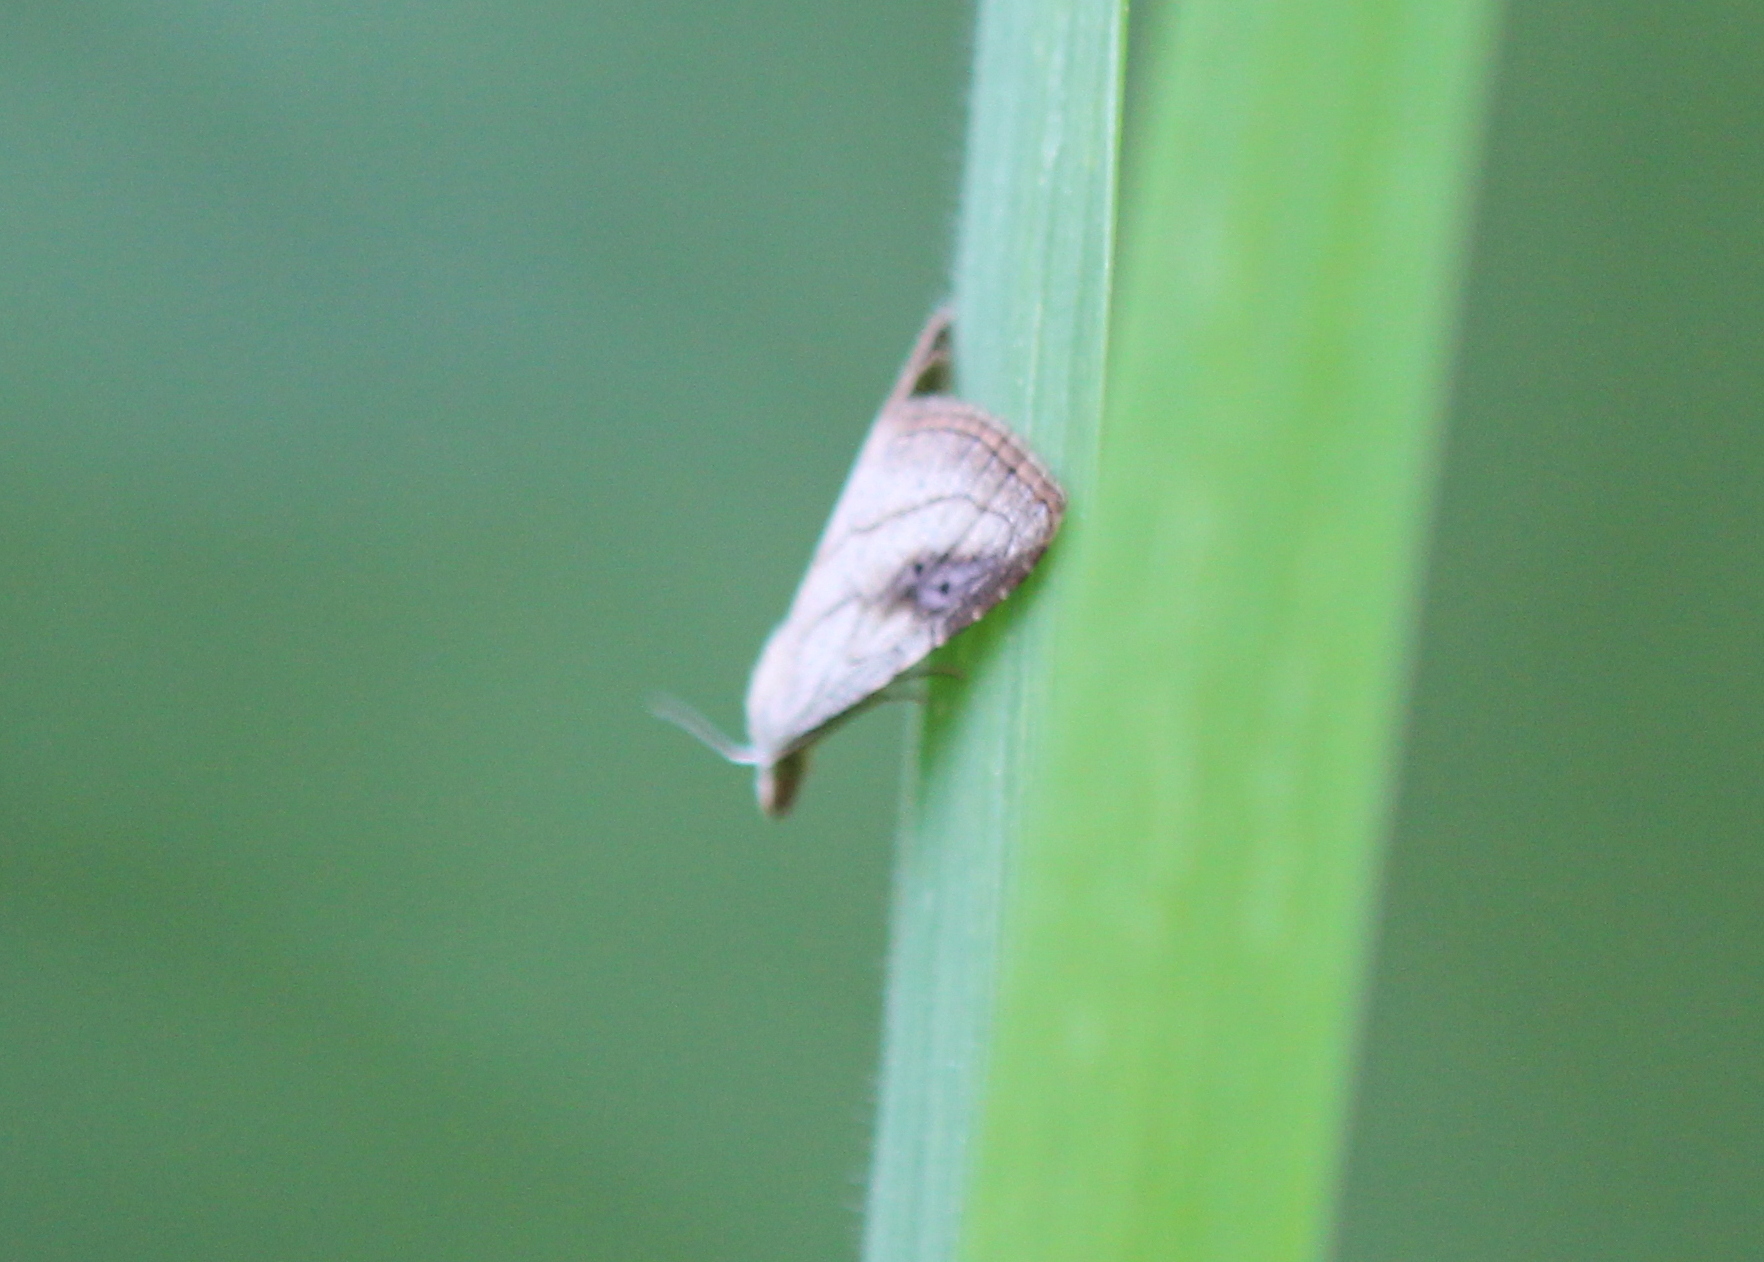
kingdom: Animalia
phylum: Arthropoda
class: Insecta
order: Lepidoptera
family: Erebidae
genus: Rivula
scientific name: Rivula propinqualis
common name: Spotted grass moth
